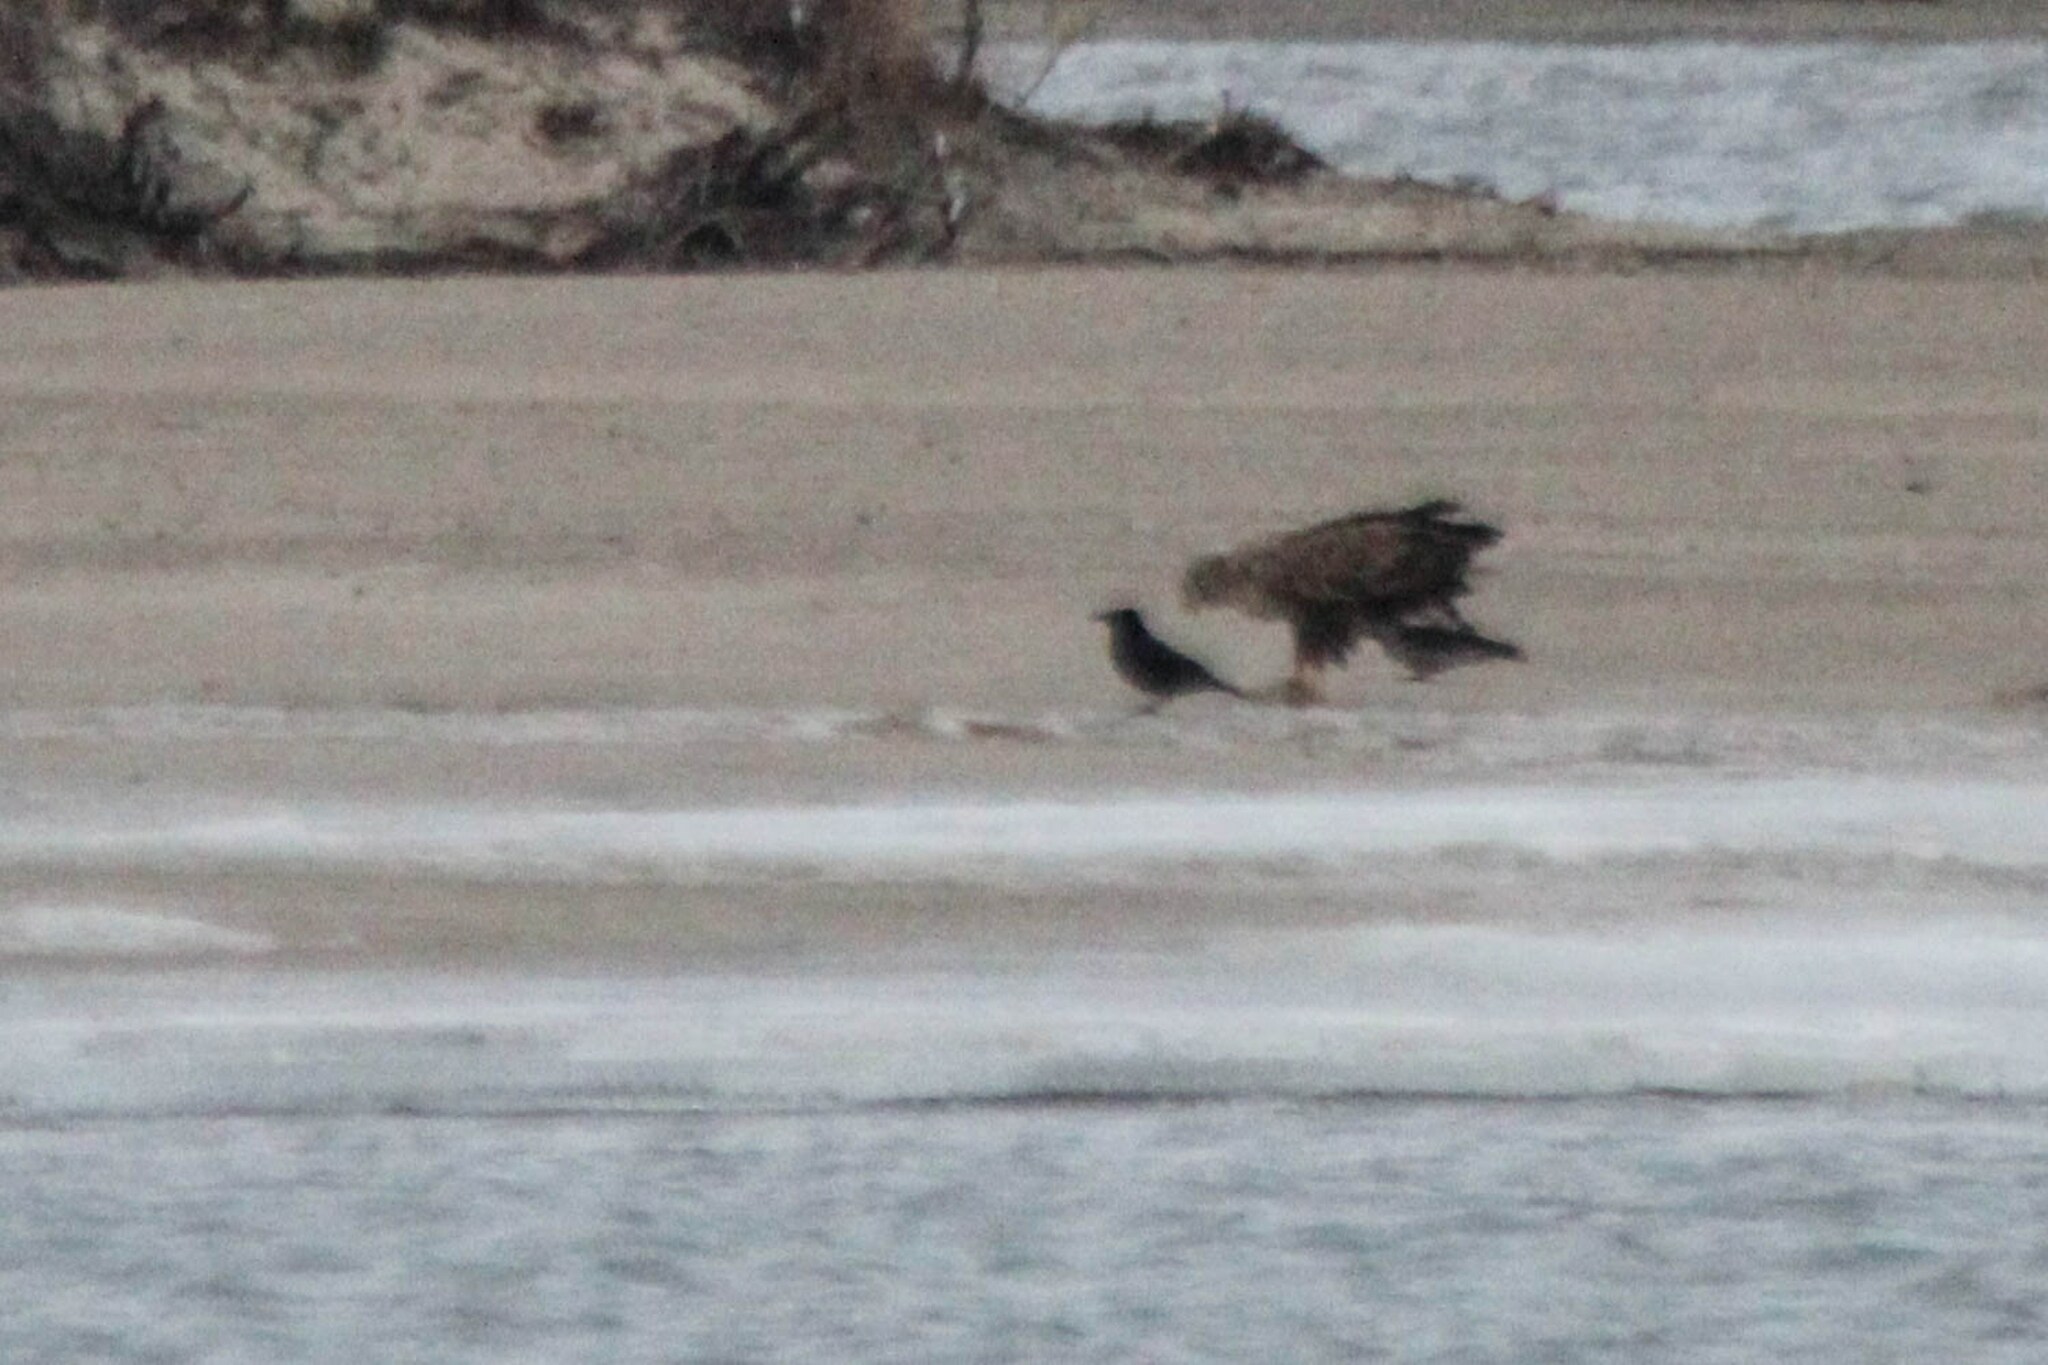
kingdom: Animalia
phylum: Chordata
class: Aves
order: Accipitriformes
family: Accipitridae
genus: Haliaeetus
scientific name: Haliaeetus albicilla
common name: White-tailed eagle
